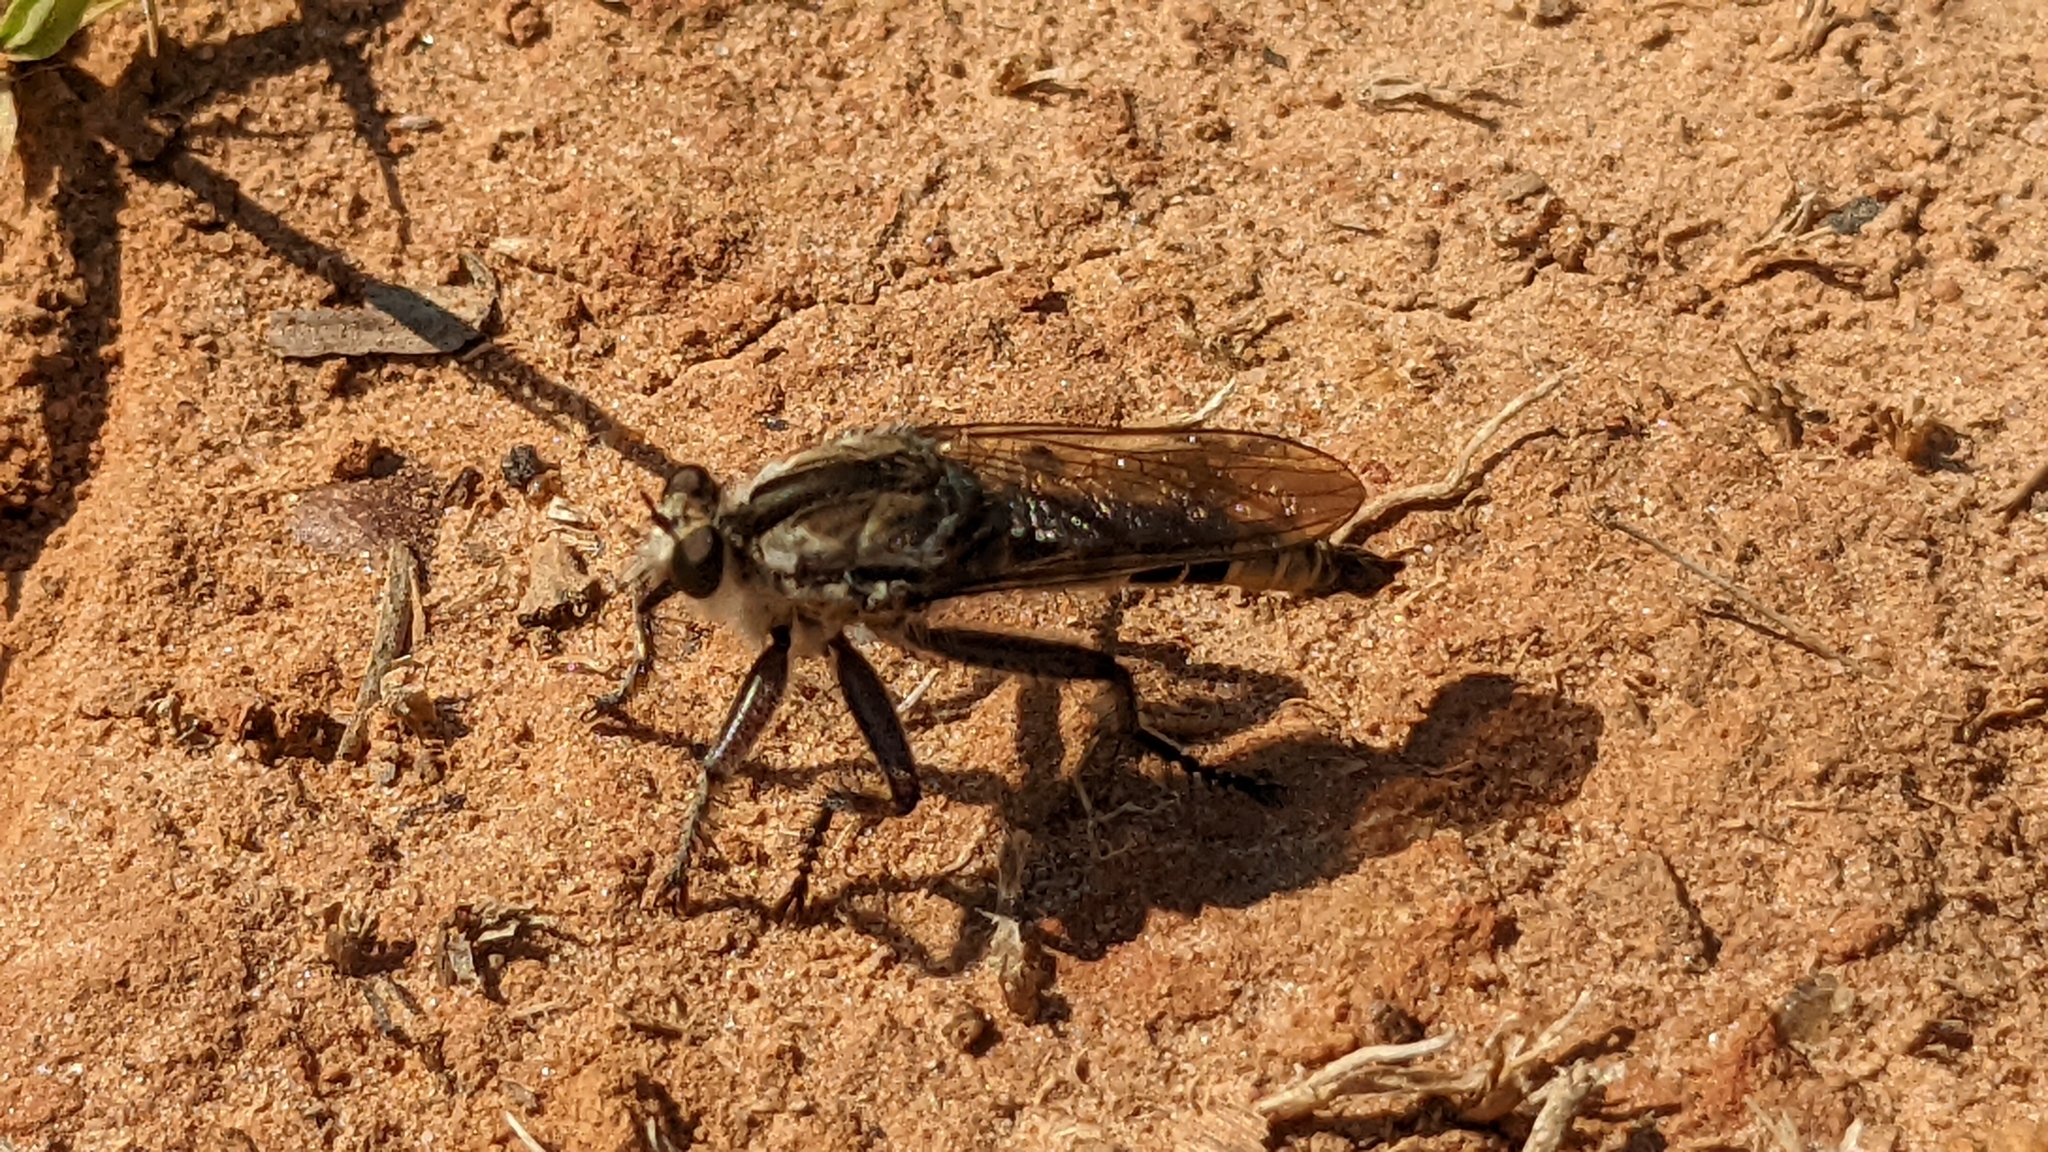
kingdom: Animalia
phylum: Arthropoda
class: Insecta
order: Diptera
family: Asilidae
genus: Triorla
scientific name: Triorla interrupta
